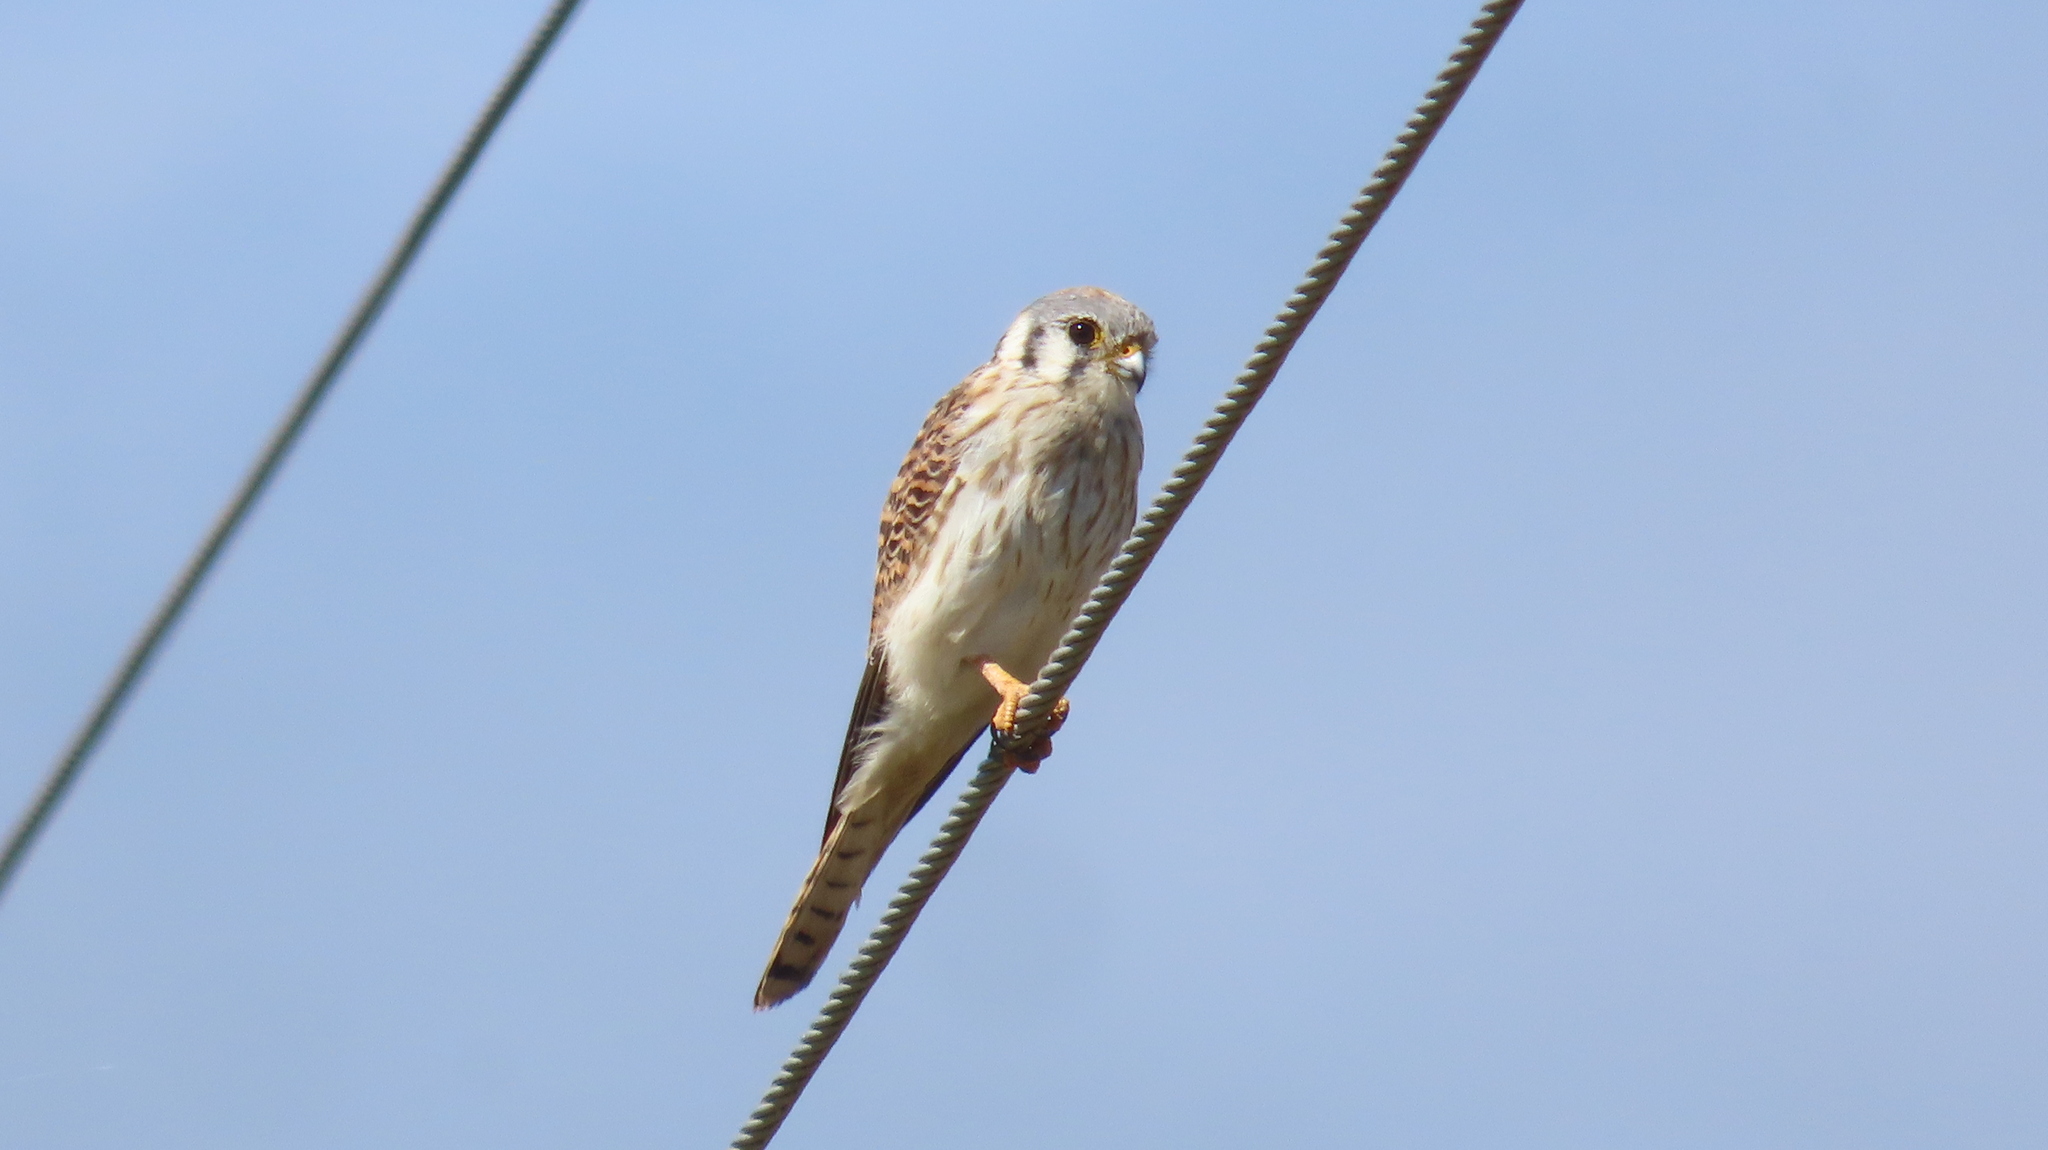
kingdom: Animalia
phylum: Chordata
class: Aves
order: Falconiformes
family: Falconidae
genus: Falco
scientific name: Falco sparverius
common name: American kestrel
